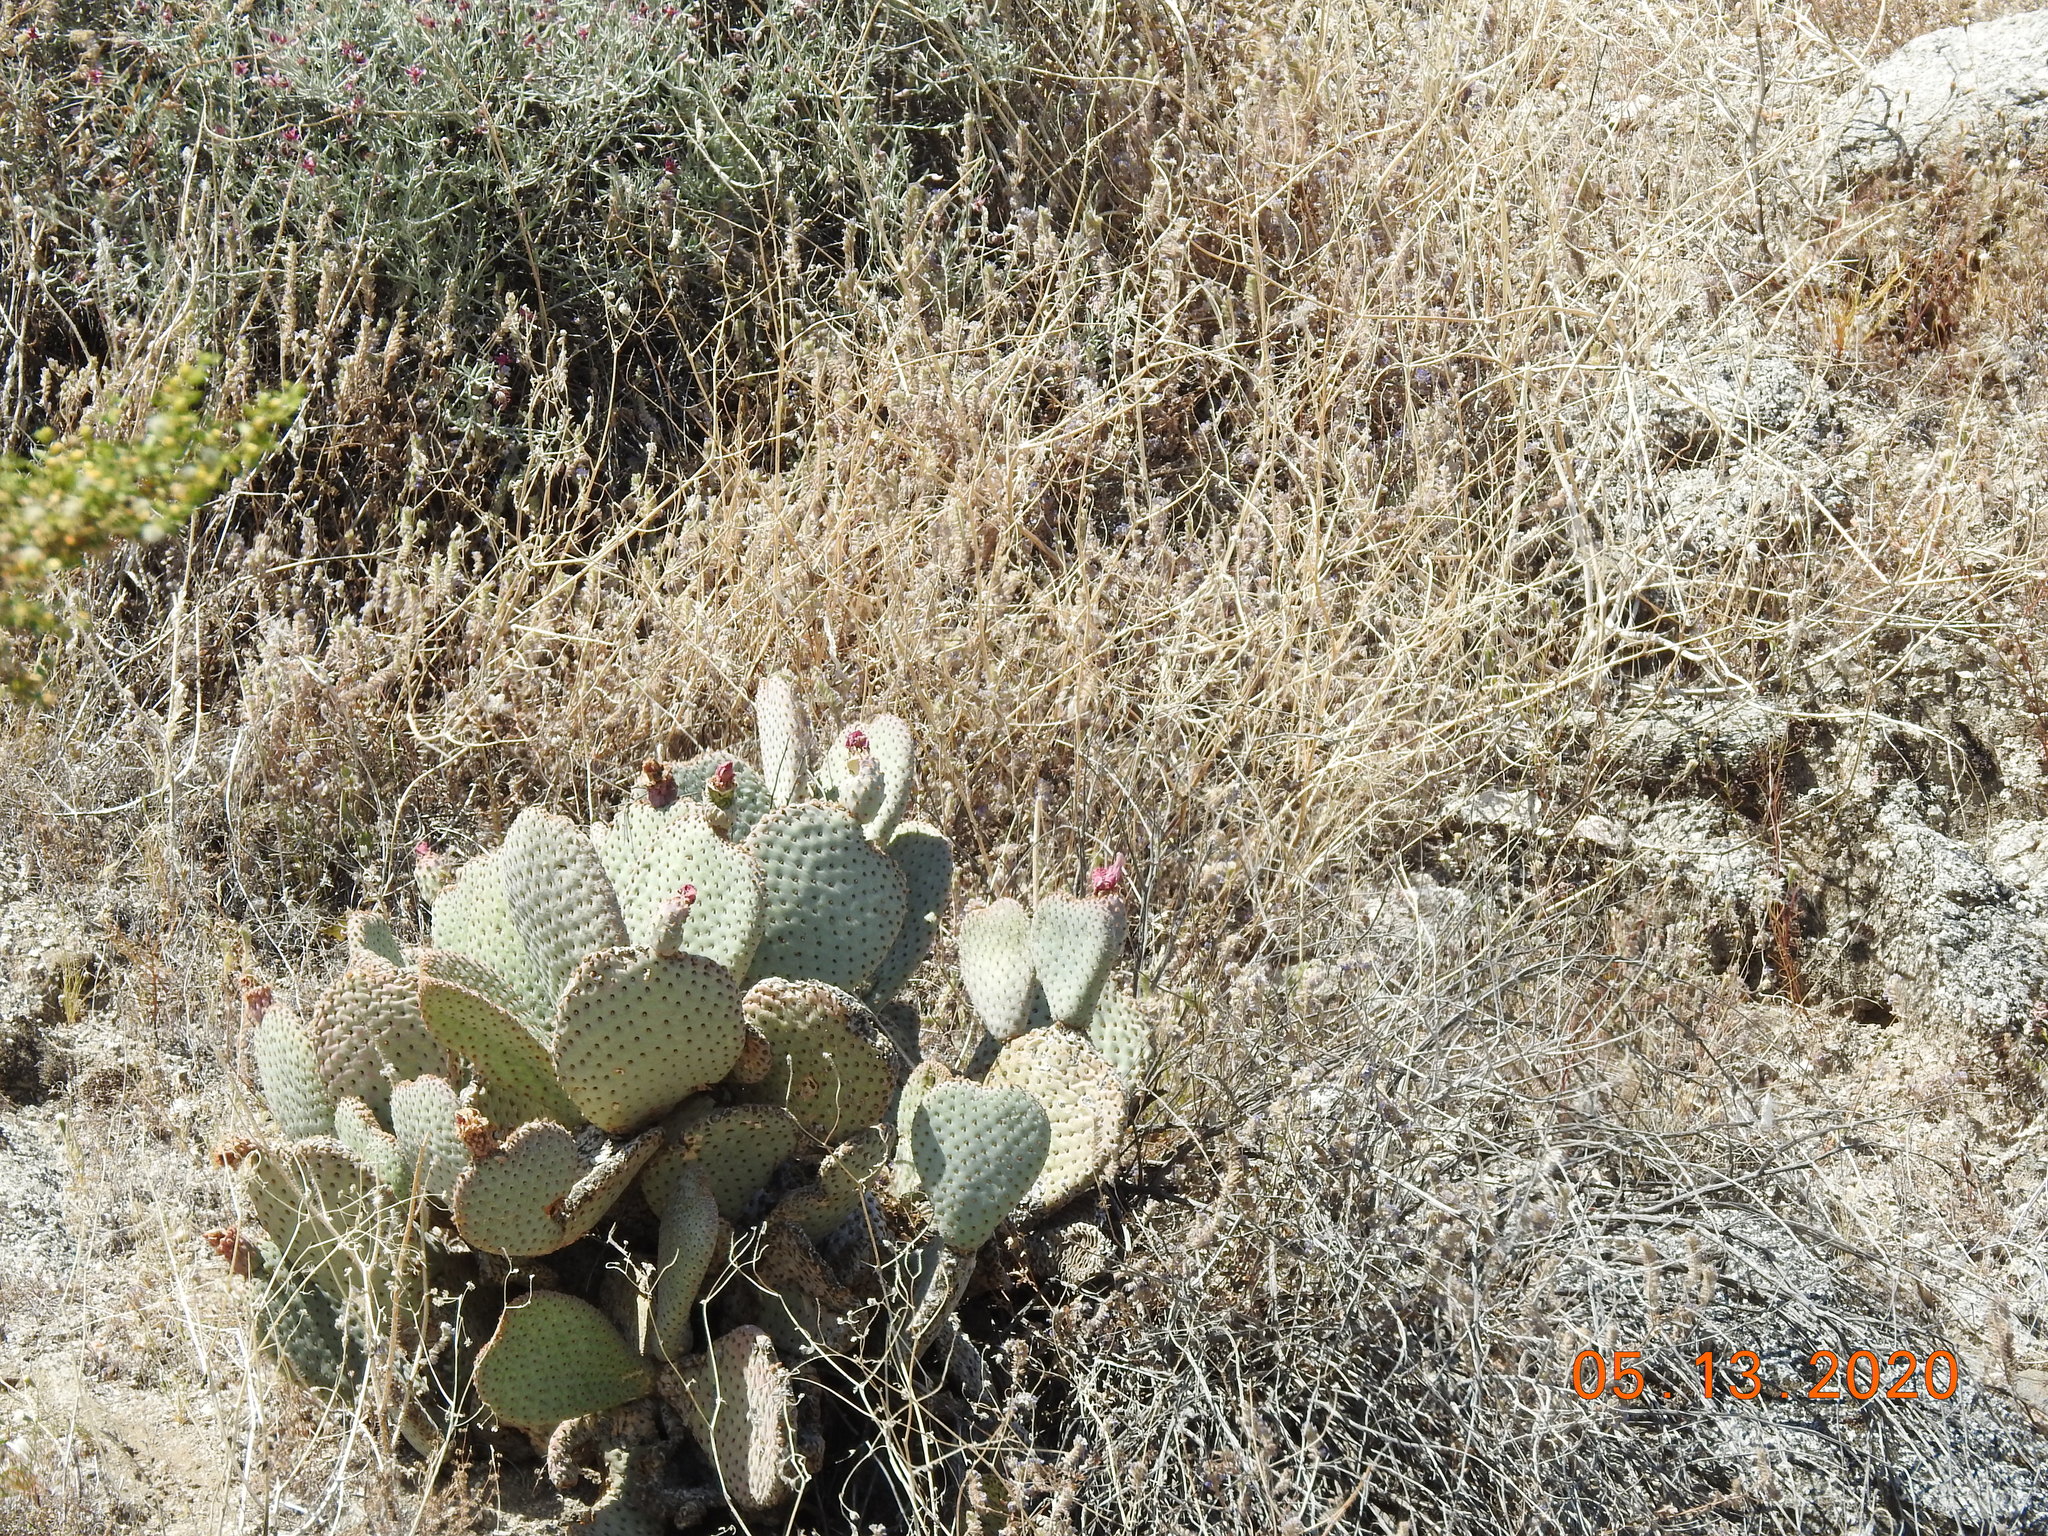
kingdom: Plantae
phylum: Tracheophyta
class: Magnoliopsida
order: Caryophyllales
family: Cactaceae
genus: Opuntia
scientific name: Opuntia basilaris
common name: Beavertail prickly-pear
